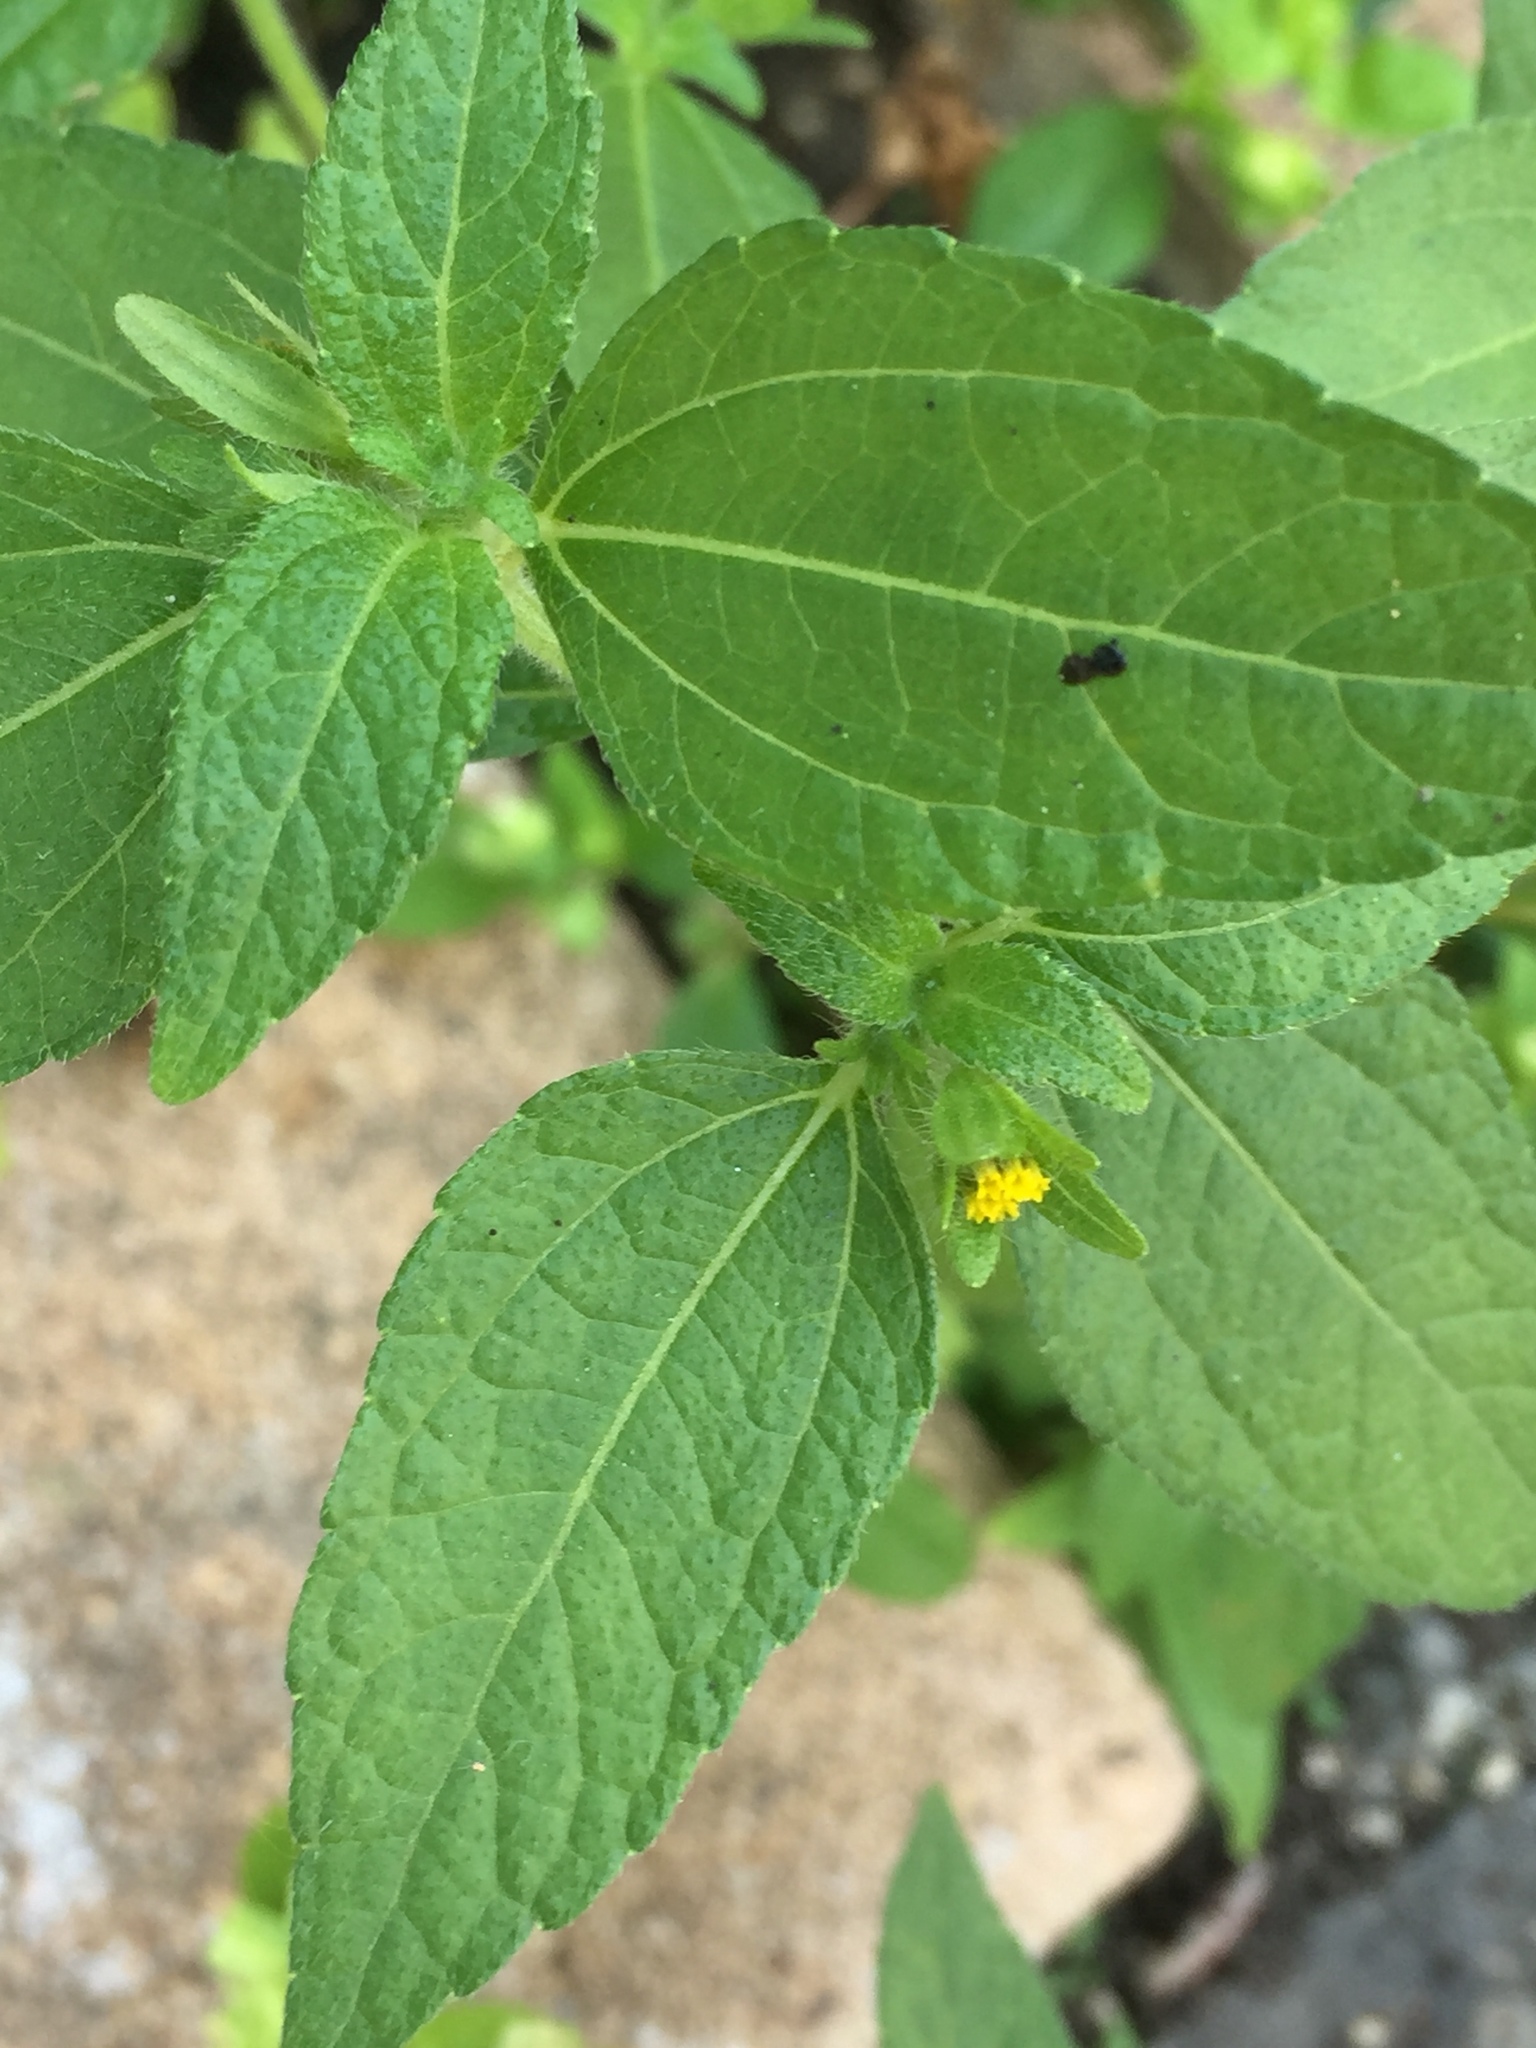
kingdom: Plantae
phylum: Tracheophyta
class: Magnoliopsida
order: Asterales
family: Asteraceae
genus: Calyptocarpus
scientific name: Calyptocarpus vialis
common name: Straggler daisy
